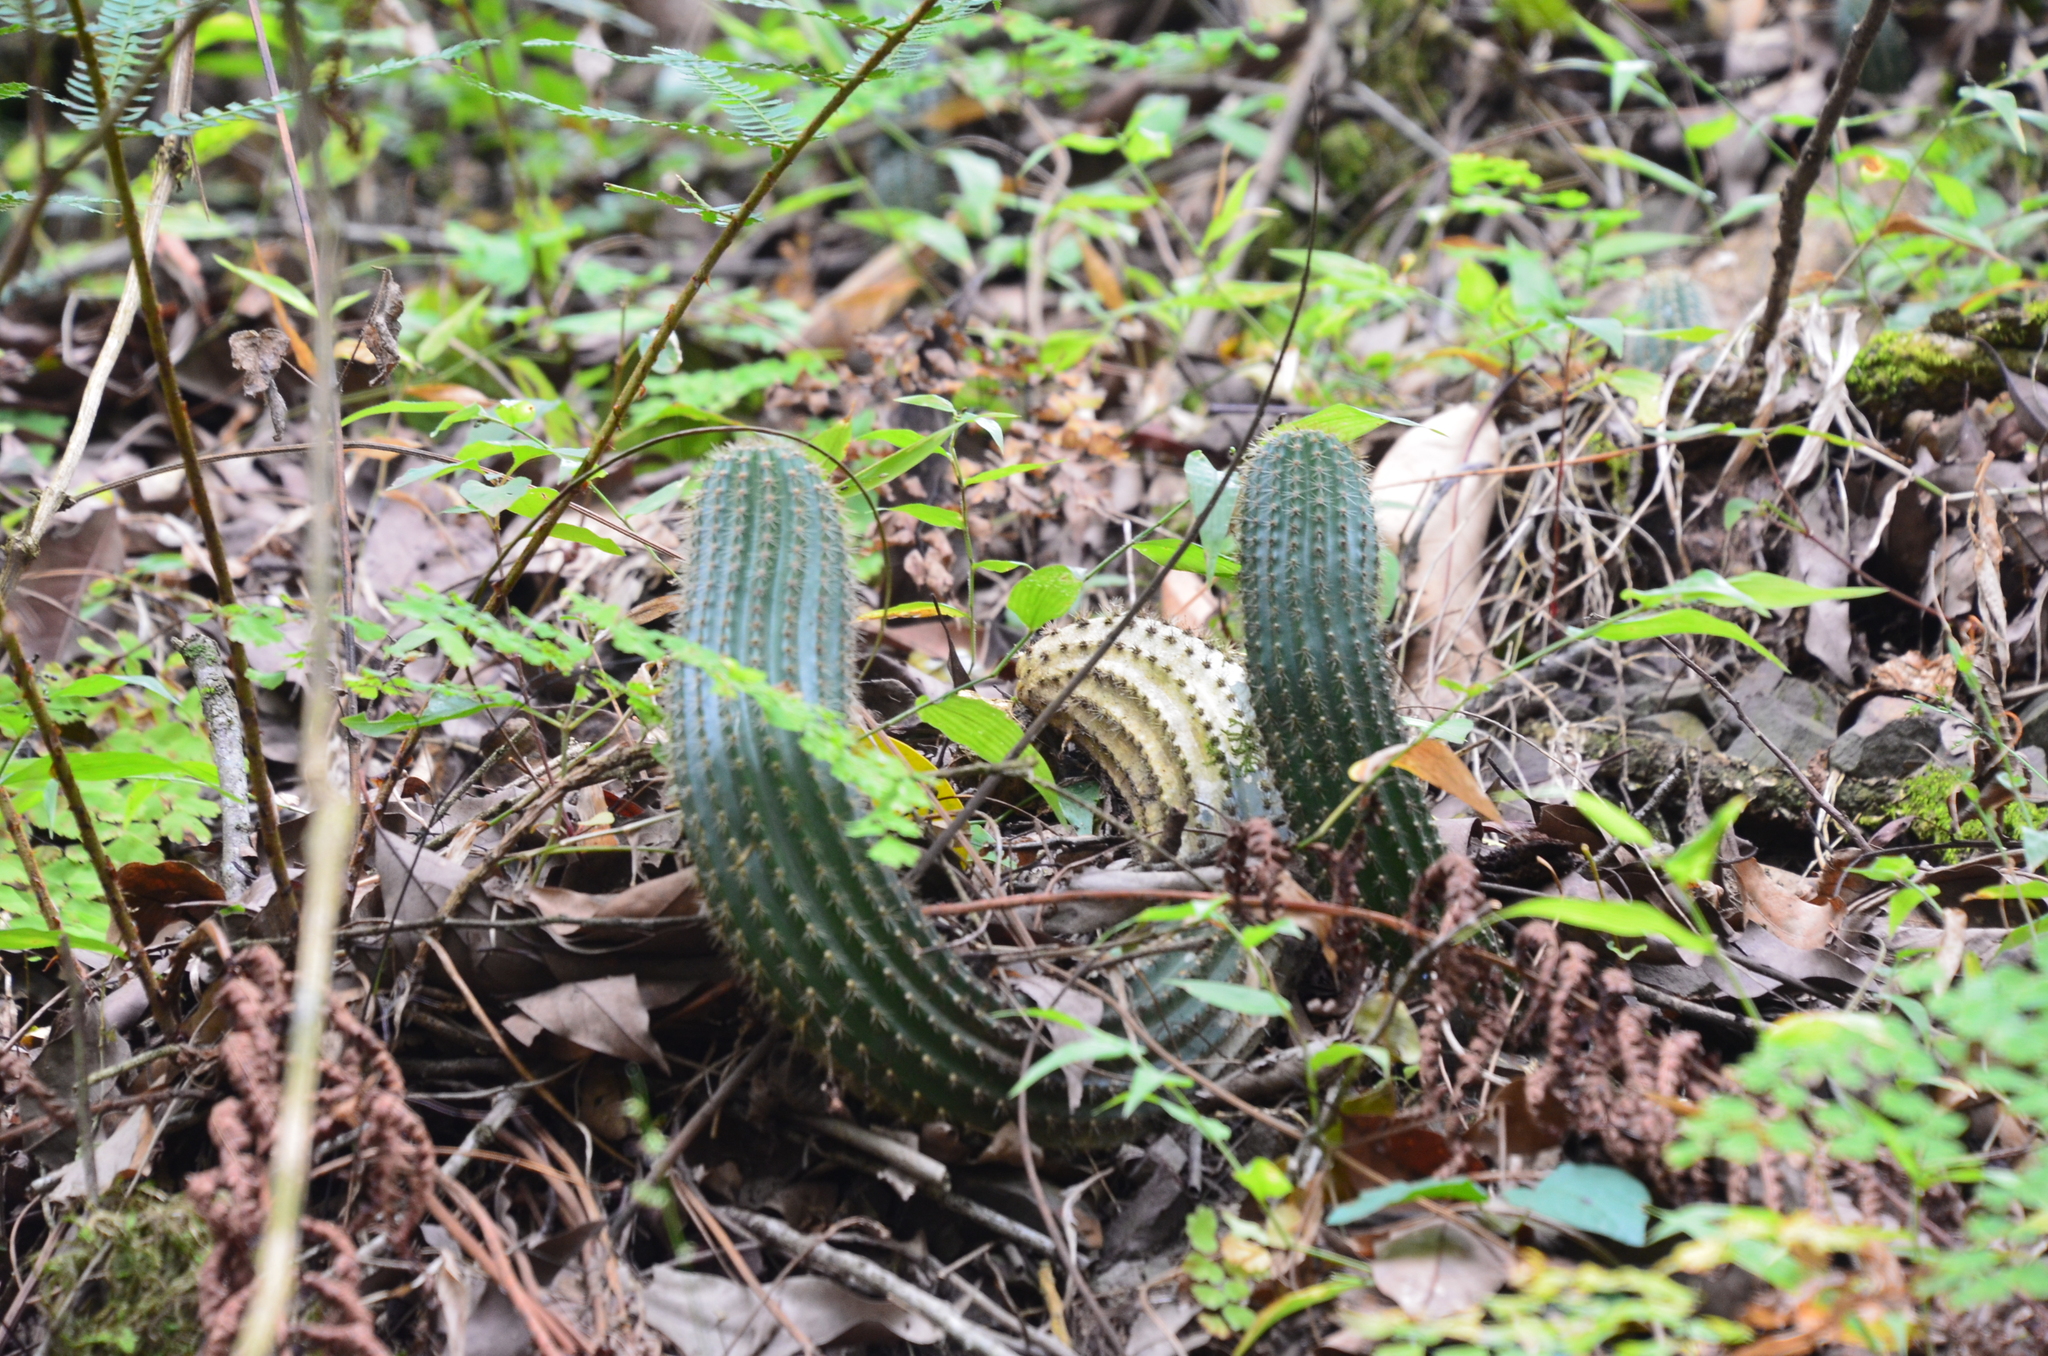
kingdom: Plantae
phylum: Tracheophyta
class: Magnoliopsida
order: Caryophyllales
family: Cactaceae
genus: Soehrensia
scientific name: Soehrensia schickendantzii
